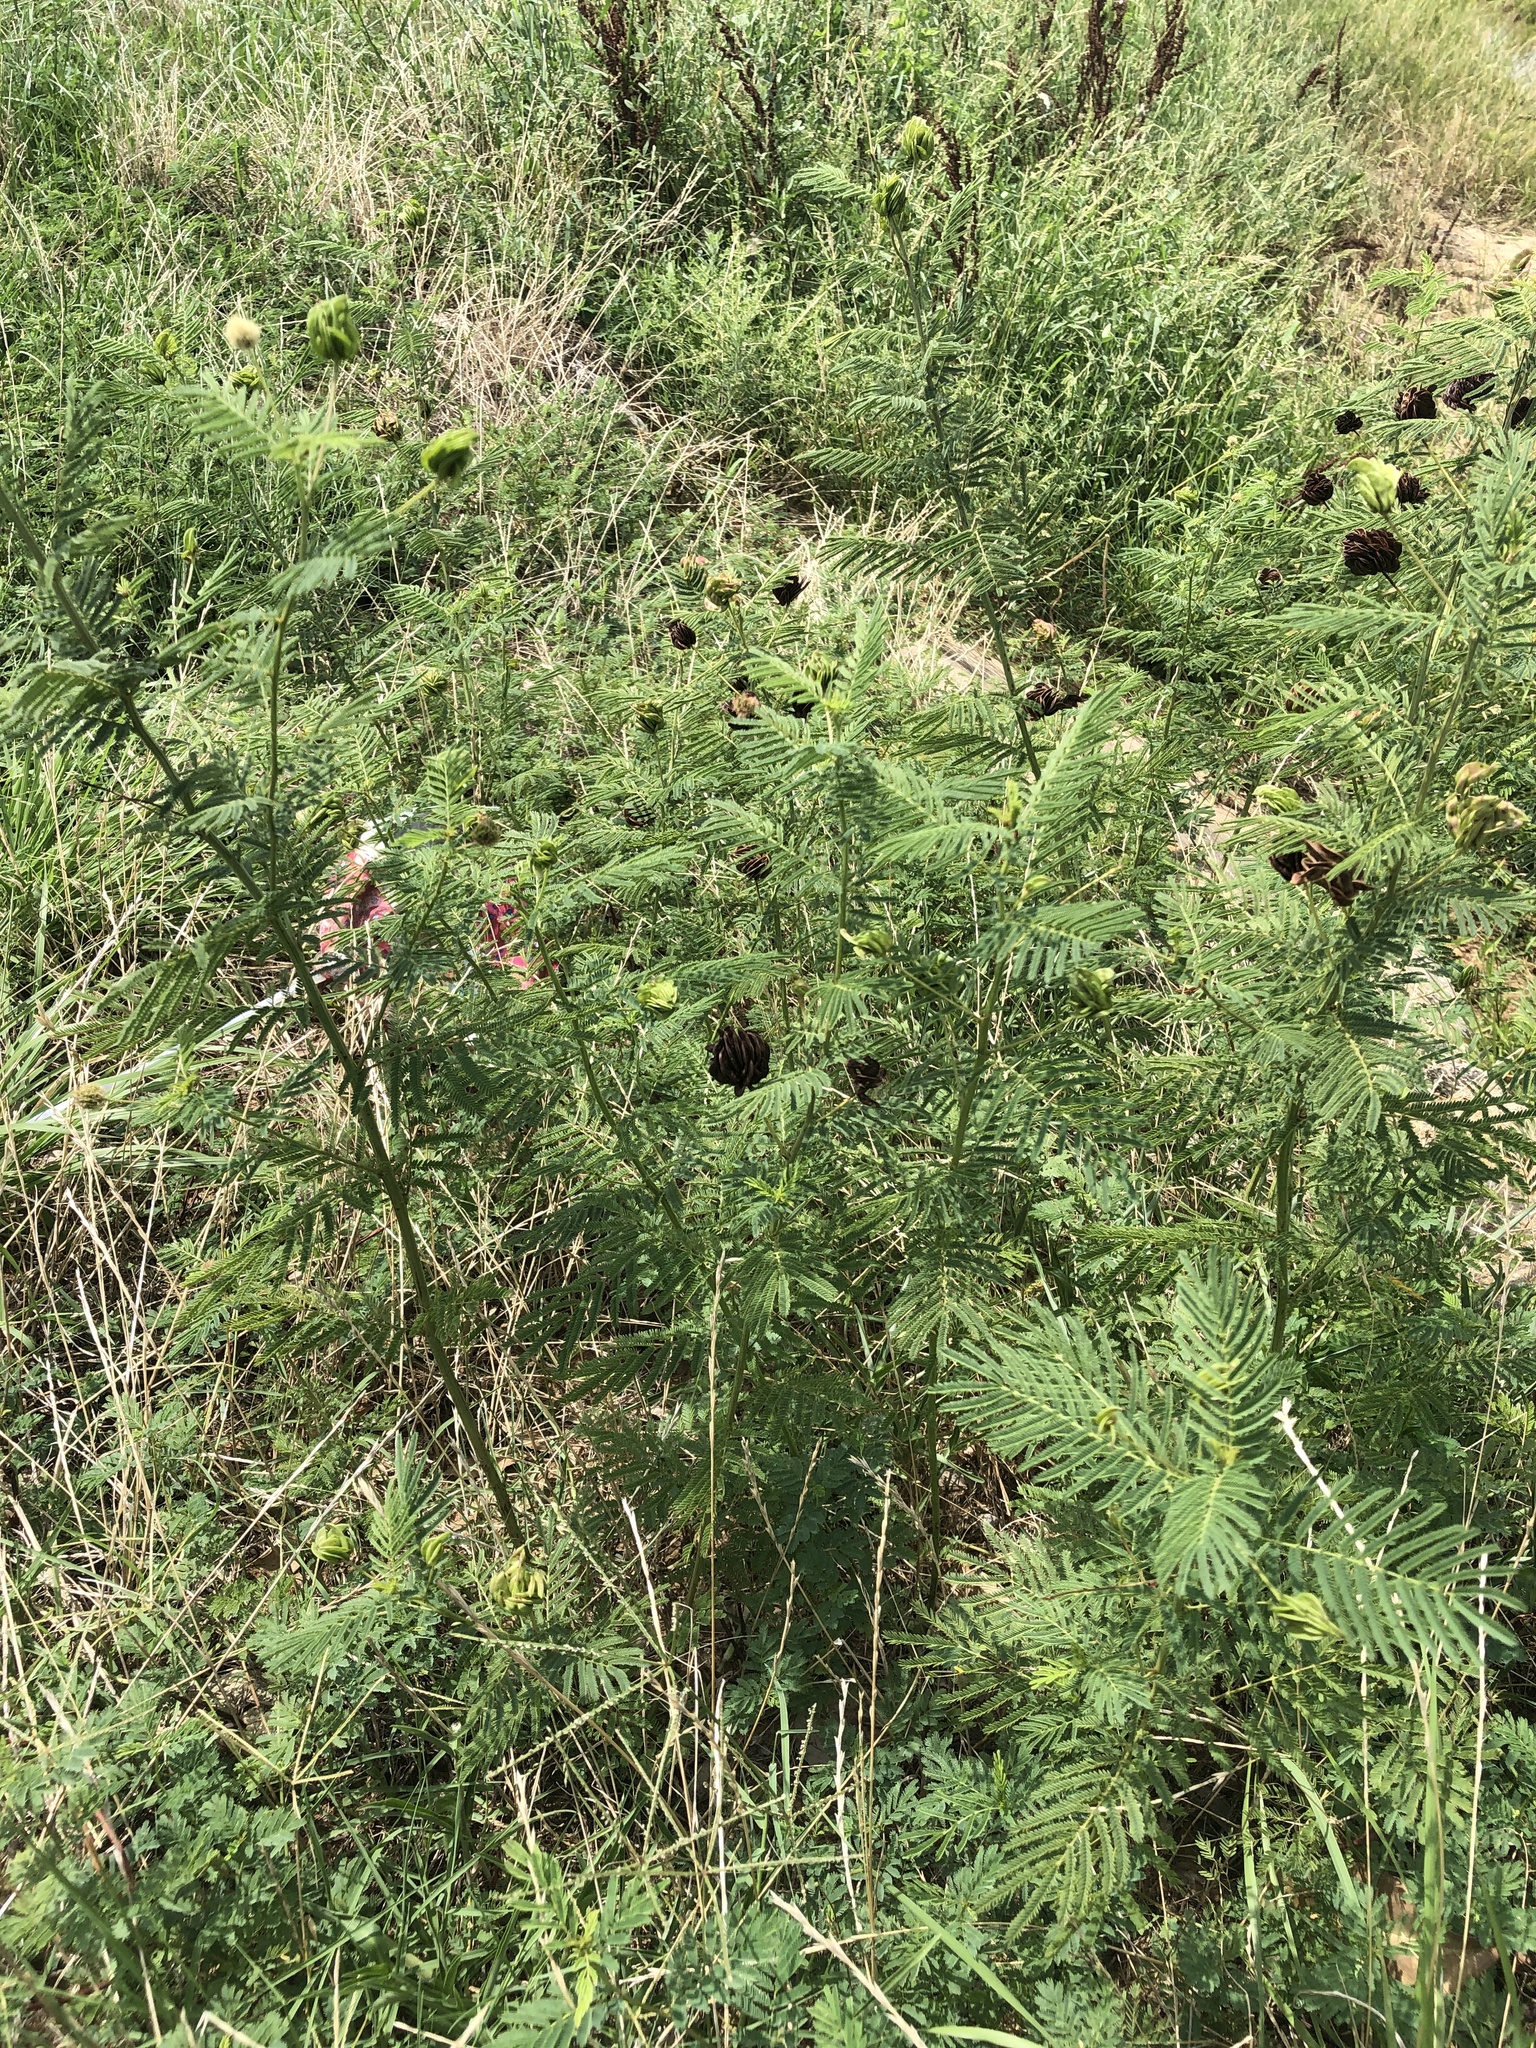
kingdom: Plantae
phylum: Tracheophyta
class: Magnoliopsida
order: Fabales
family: Fabaceae
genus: Desmanthus
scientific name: Desmanthus illinoensis
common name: Illinois bundle-flower
